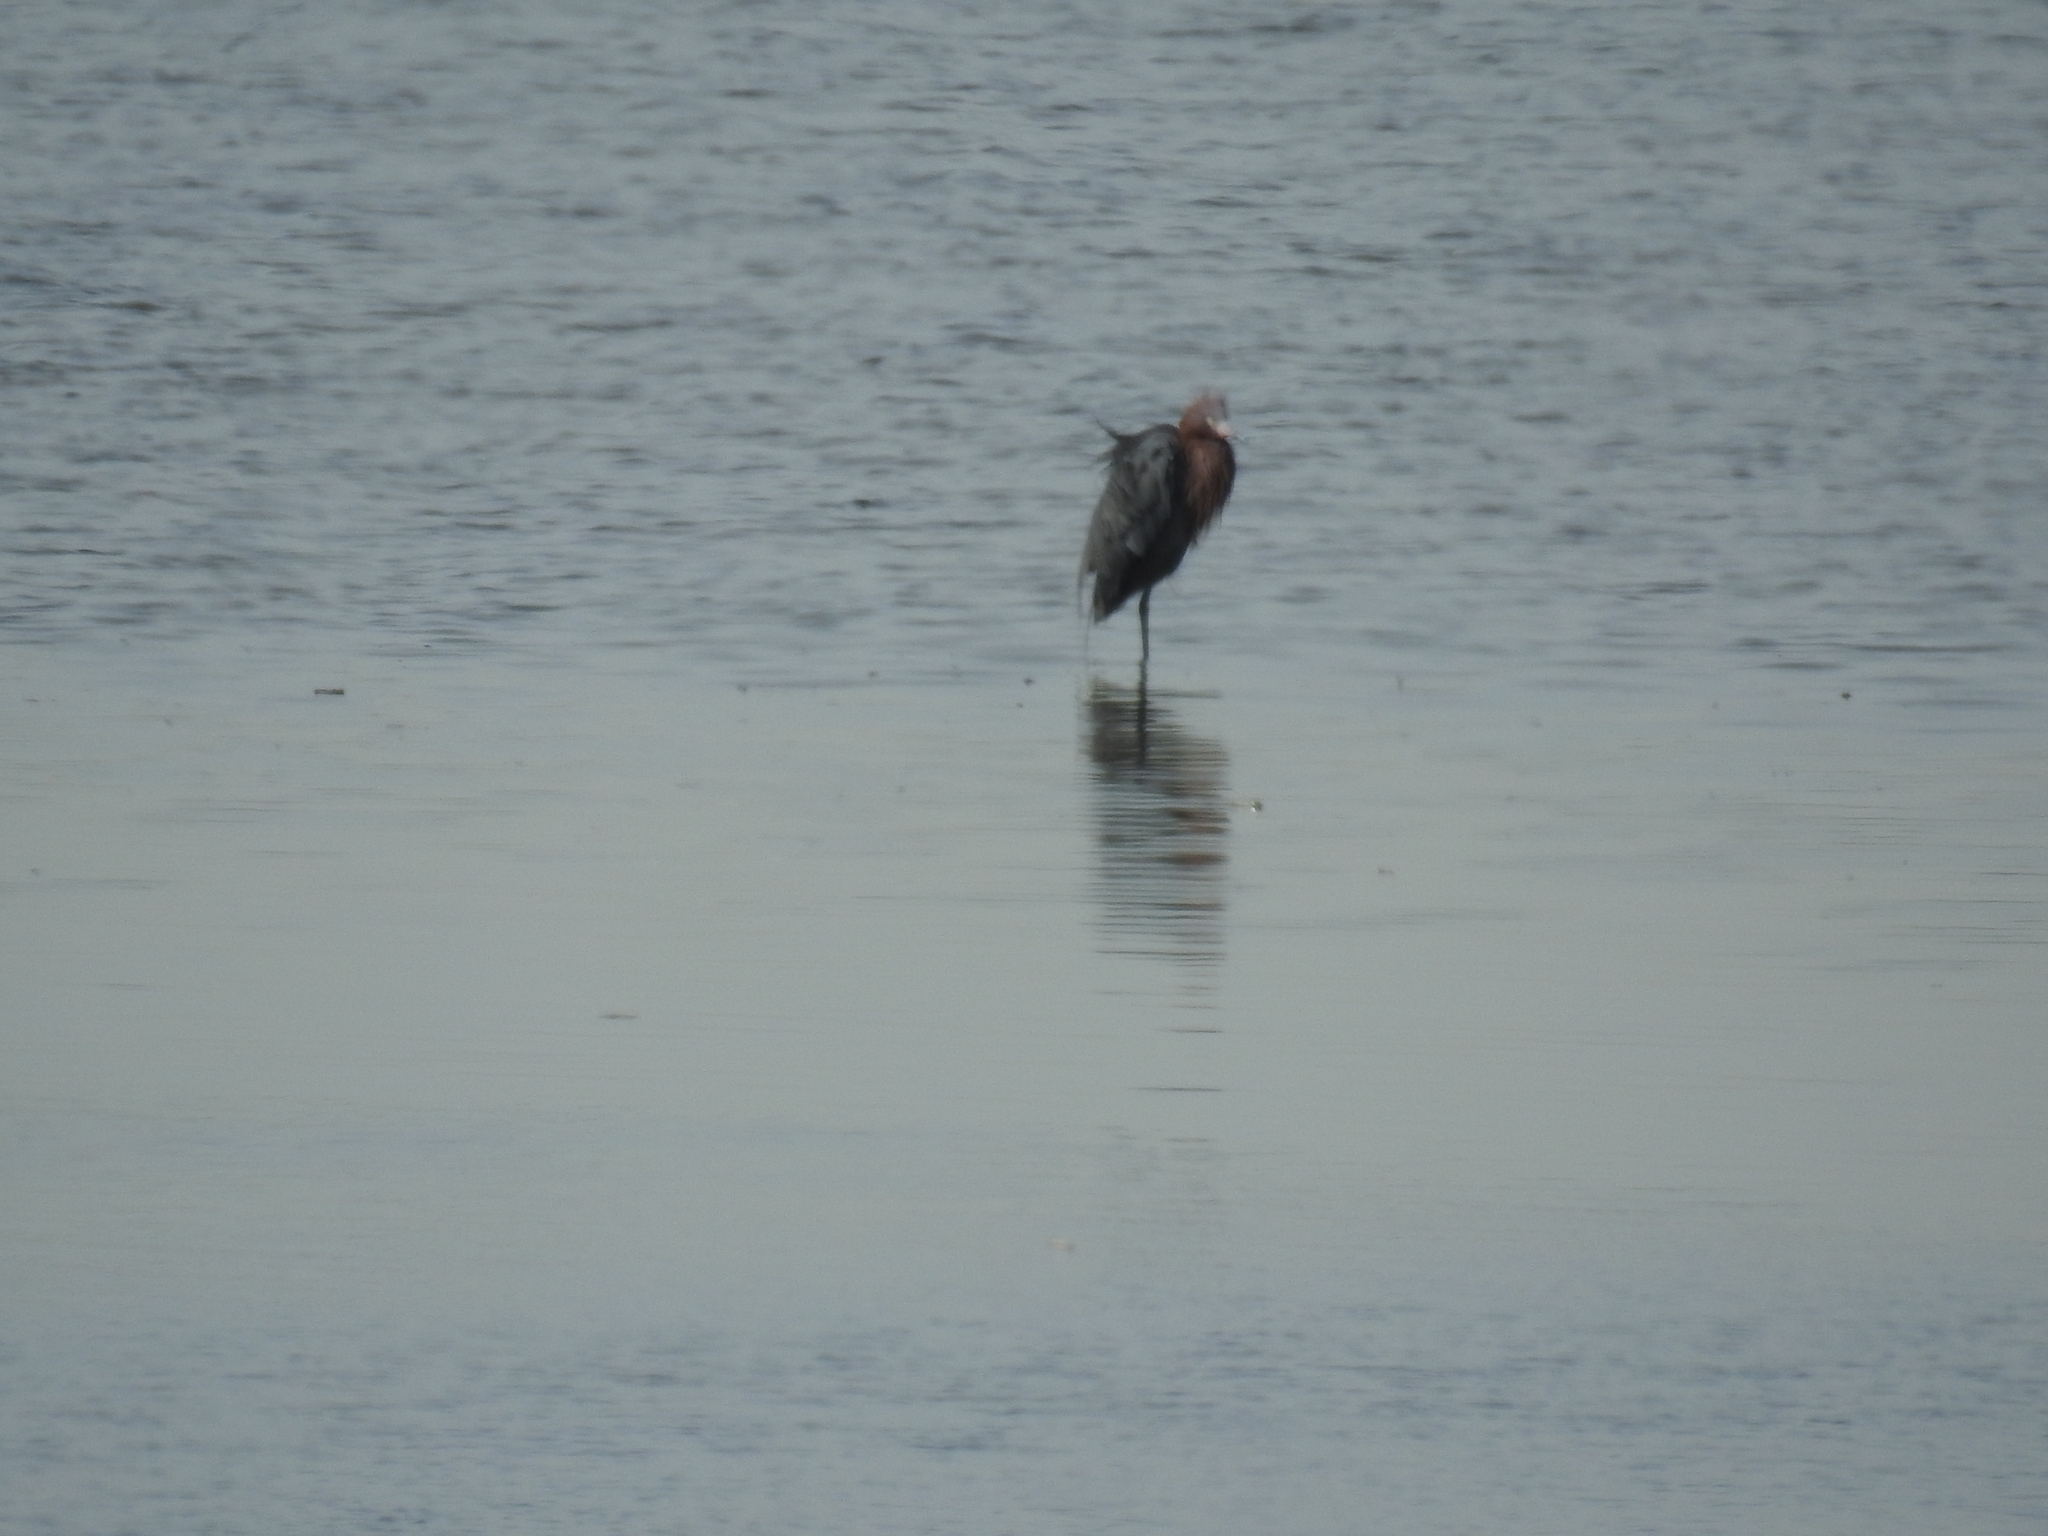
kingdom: Animalia
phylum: Chordata
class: Aves
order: Pelecaniformes
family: Ardeidae
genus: Egretta
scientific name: Egretta rufescens
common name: Reddish egret
